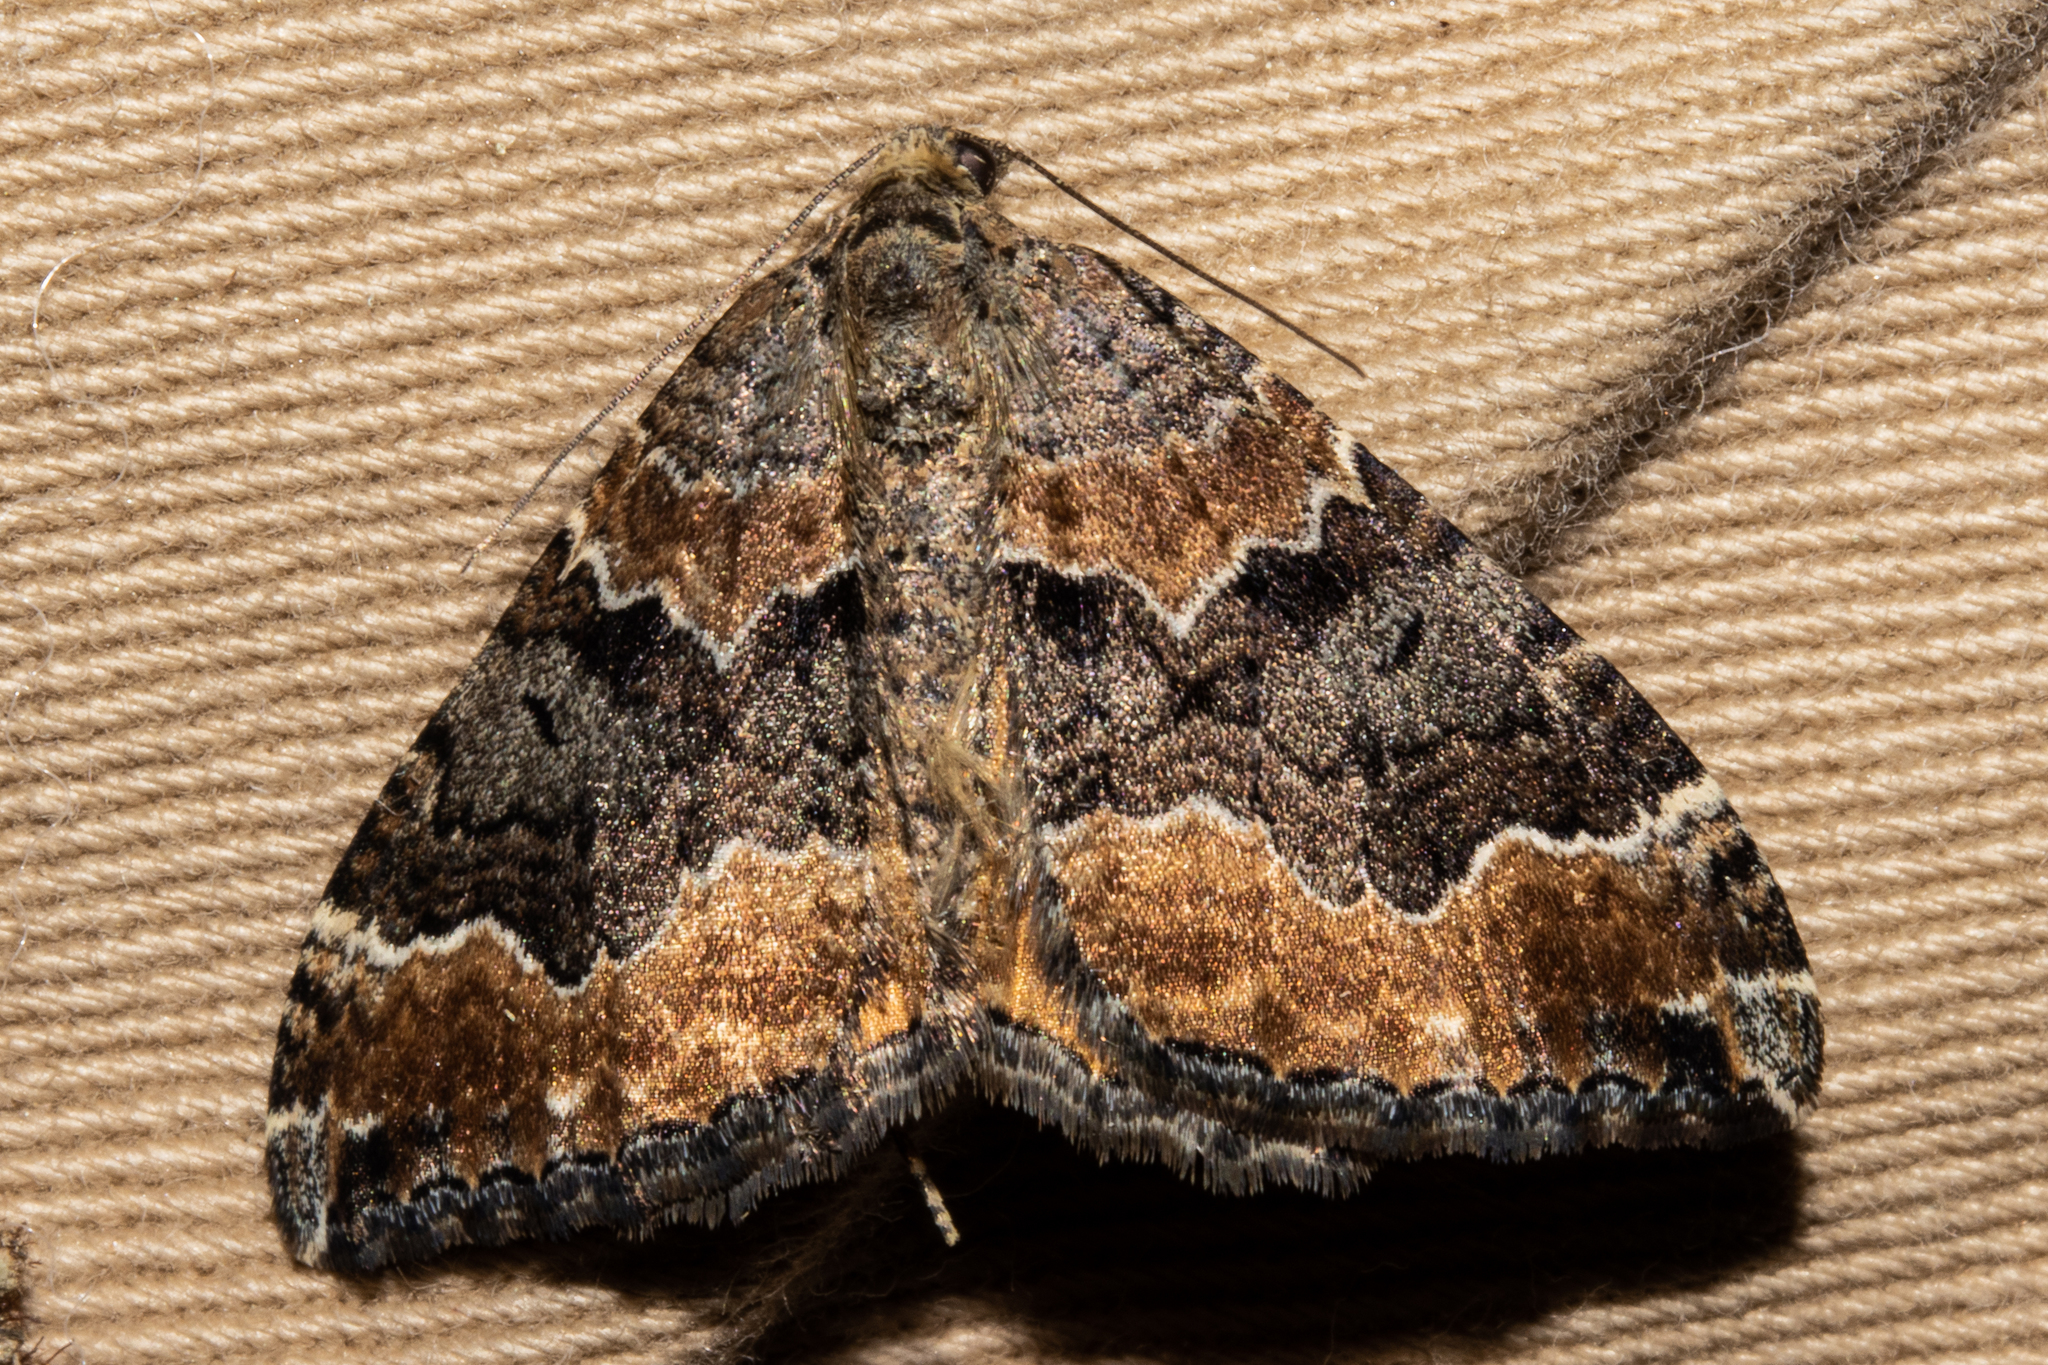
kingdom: Animalia
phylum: Arthropoda
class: Insecta
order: Lepidoptera
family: Geometridae
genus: Hydriomena
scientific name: Hydriomena deltoidata
